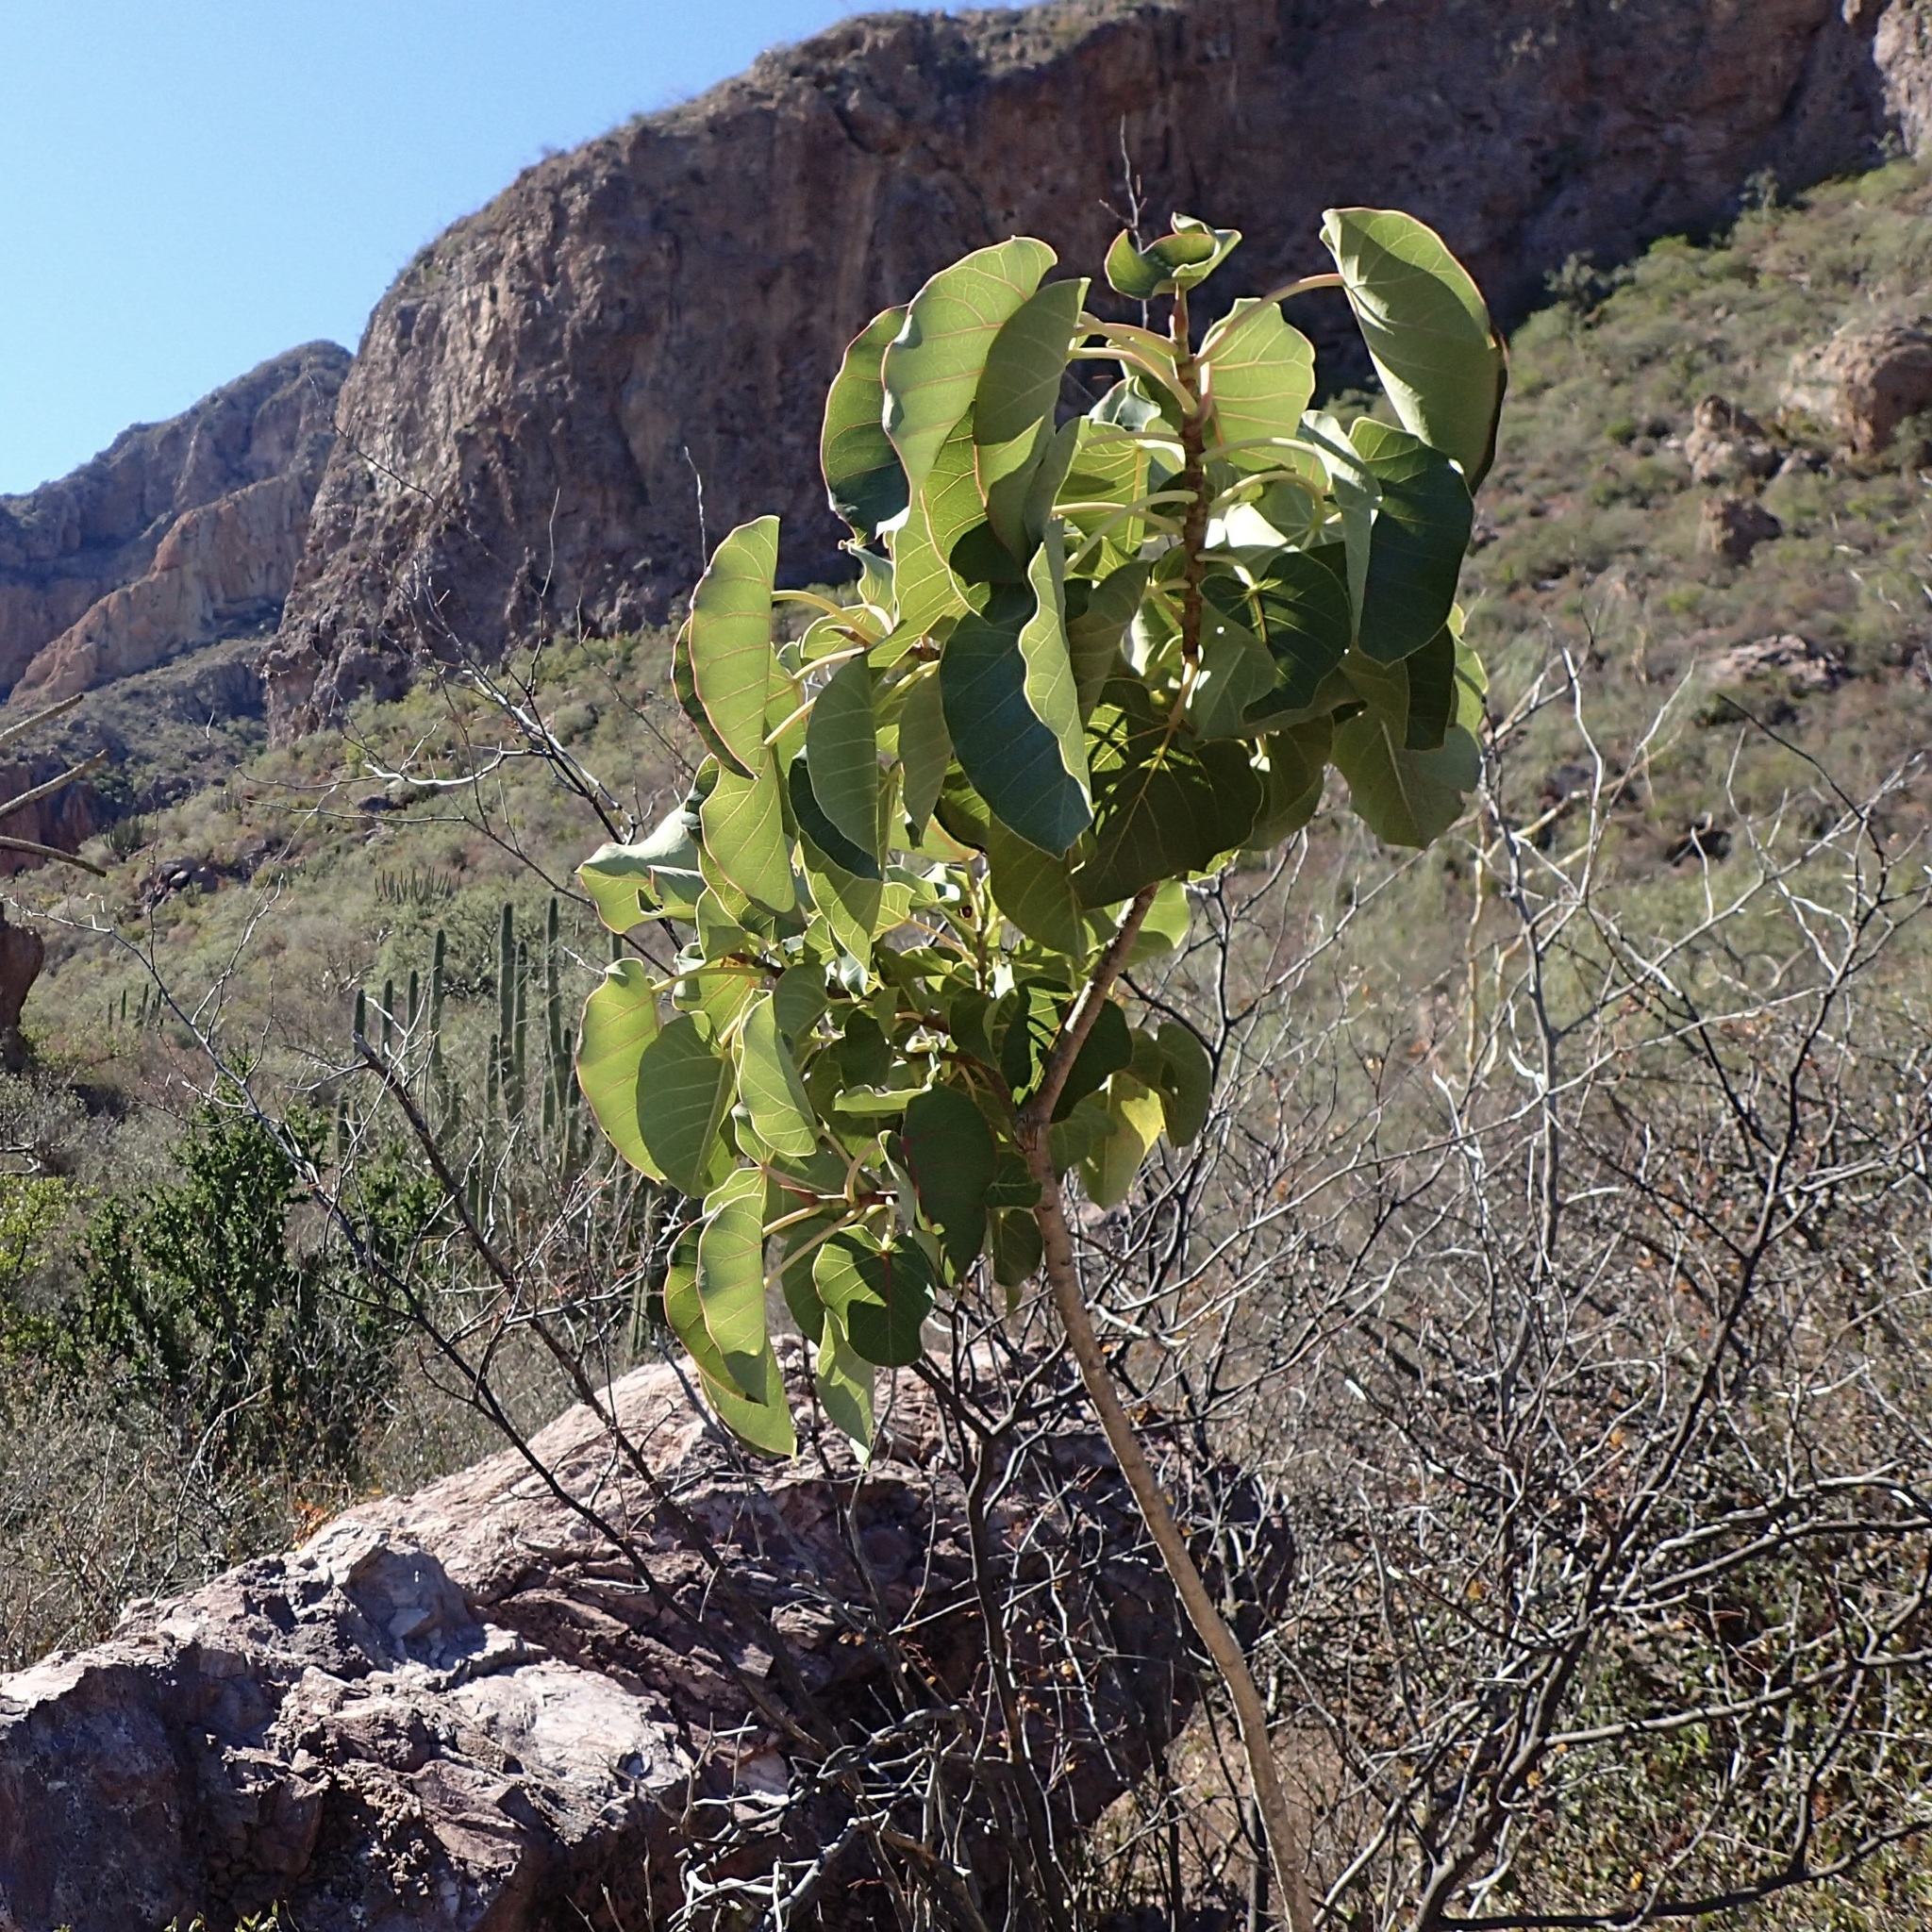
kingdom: Plantae
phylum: Tracheophyta
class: Magnoliopsida
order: Rosales
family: Moraceae
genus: Ficus
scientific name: Ficus petiolaris
